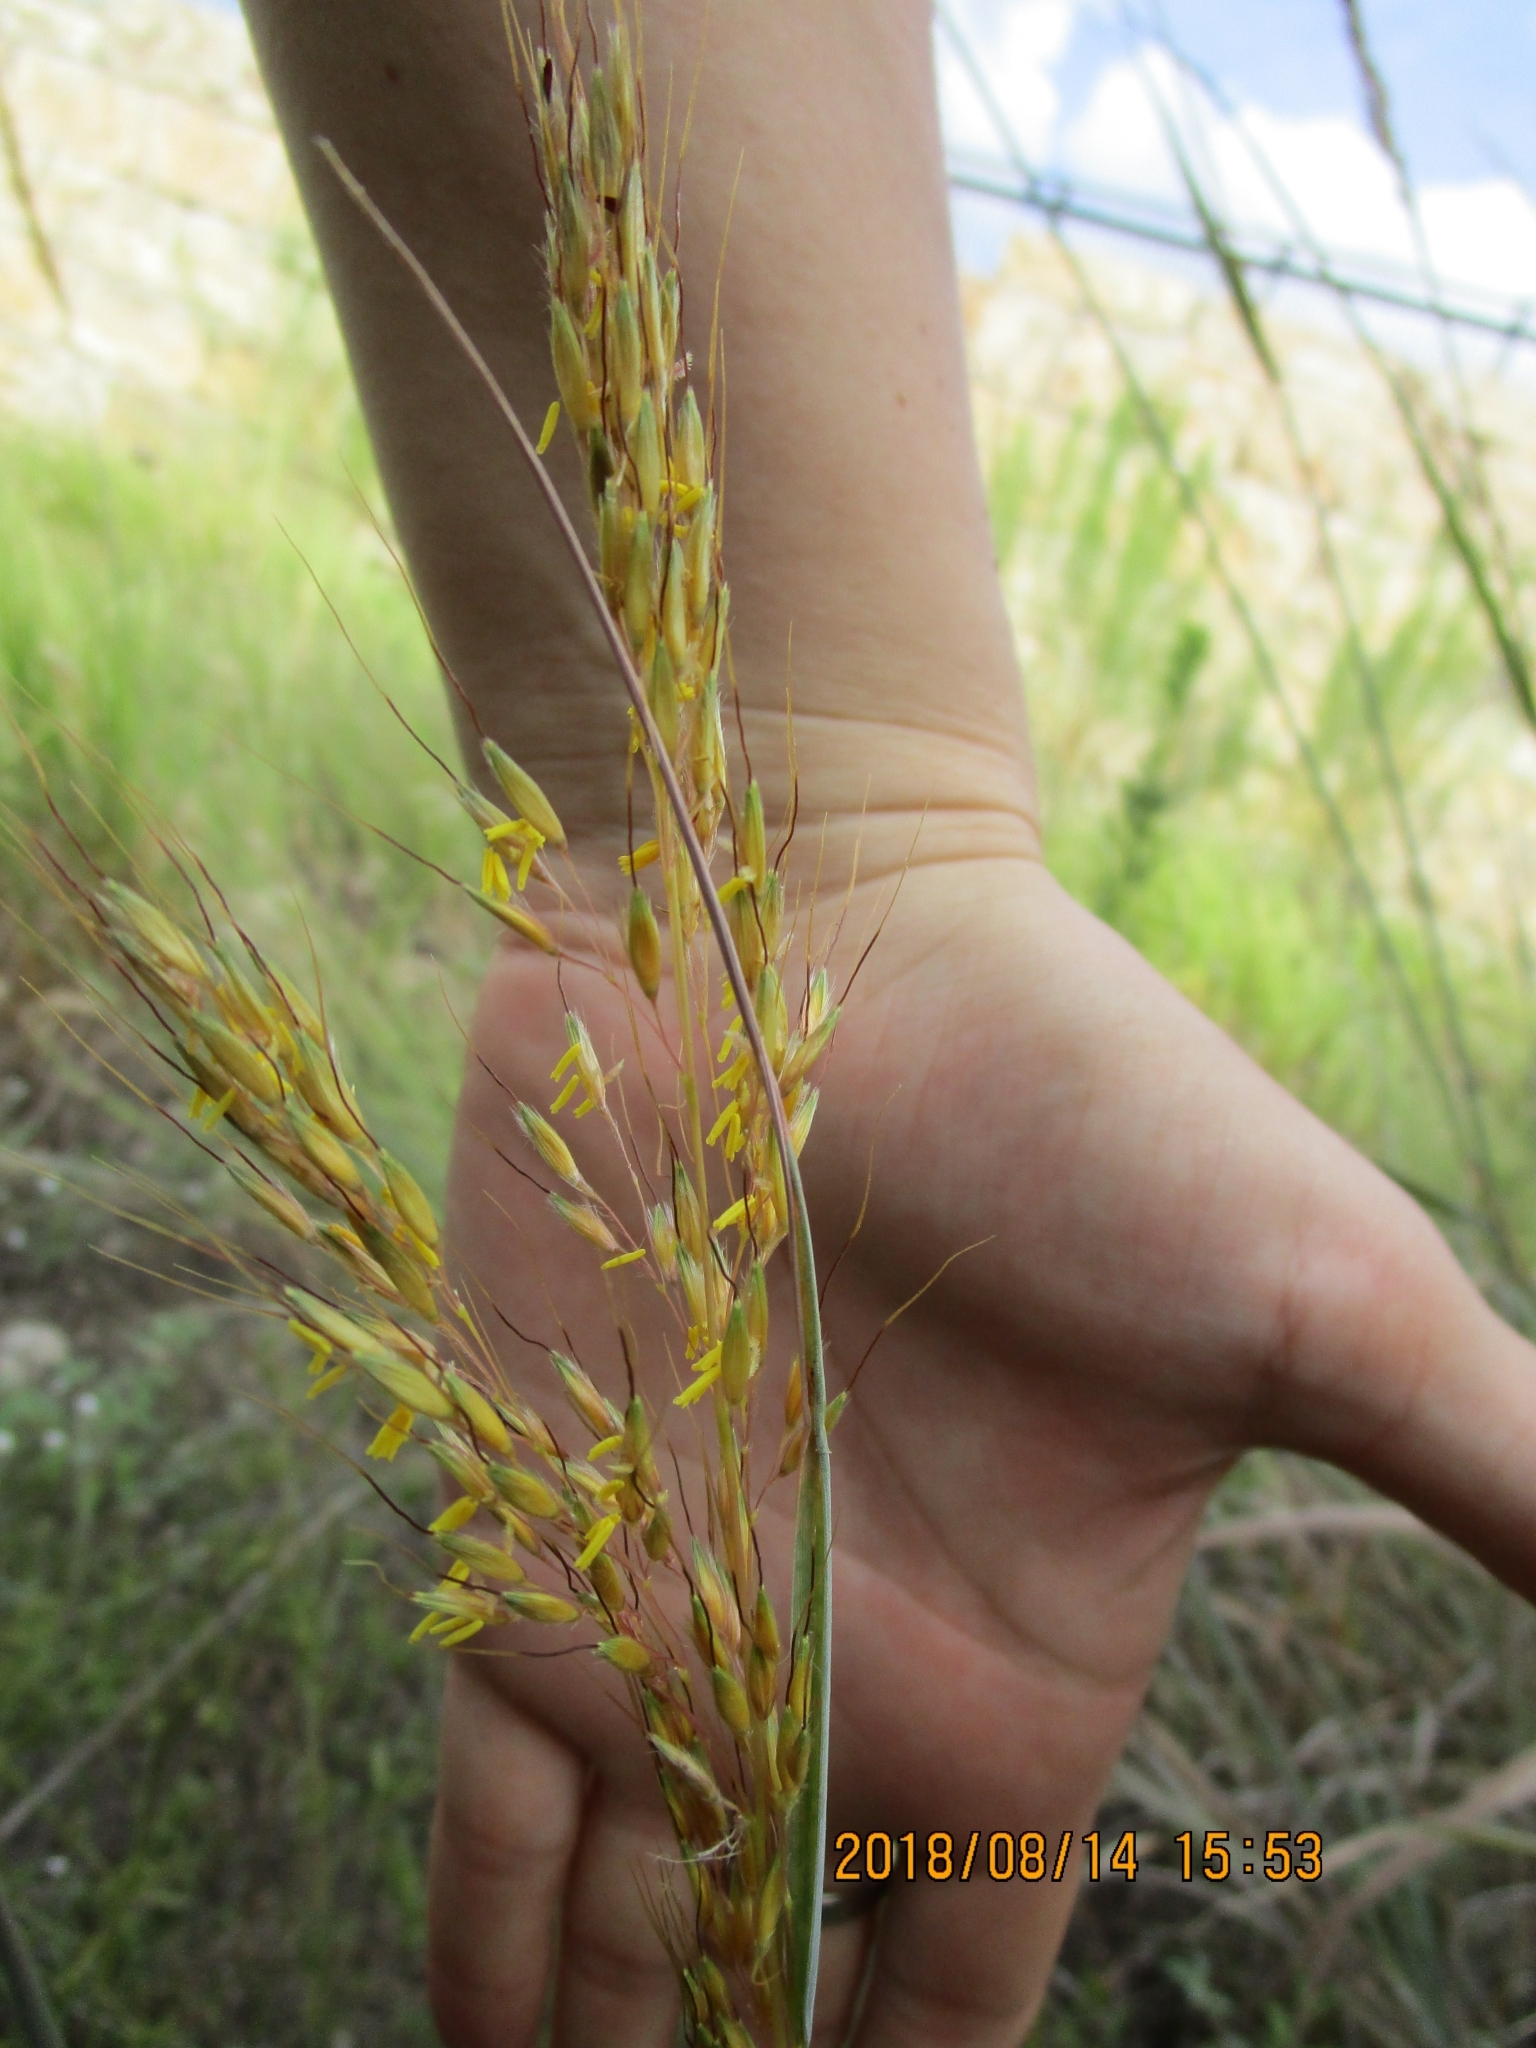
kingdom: Plantae
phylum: Tracheophyta
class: Liliopsida
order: Poales
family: Poaceae
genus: Sorghastrum
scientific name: Sorghastrum nutans
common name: Indian grass
